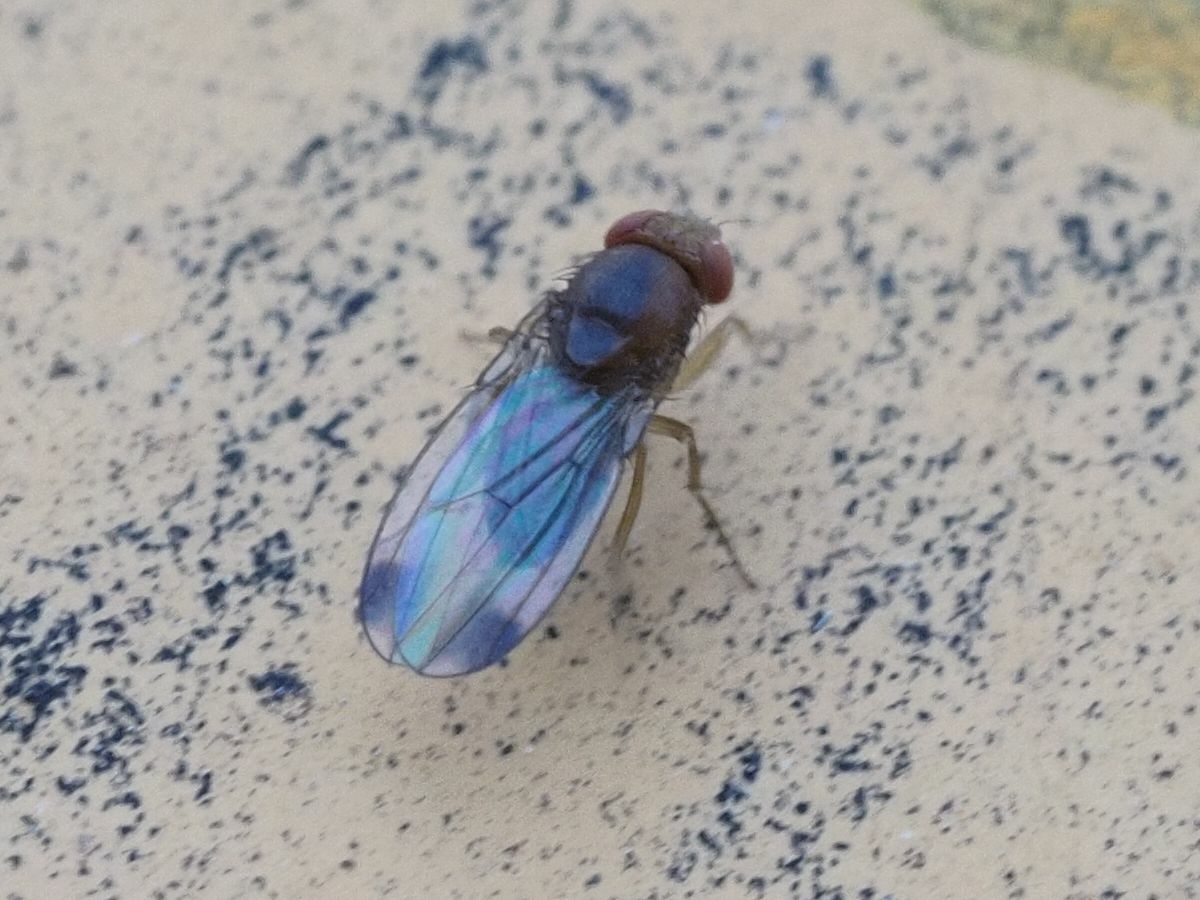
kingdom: Animalia
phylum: Arthropoda
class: Insecta
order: Diptera
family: Drosophilidae
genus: Drosophila
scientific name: Drosophila suzukii
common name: Spotted-wing drosophila
